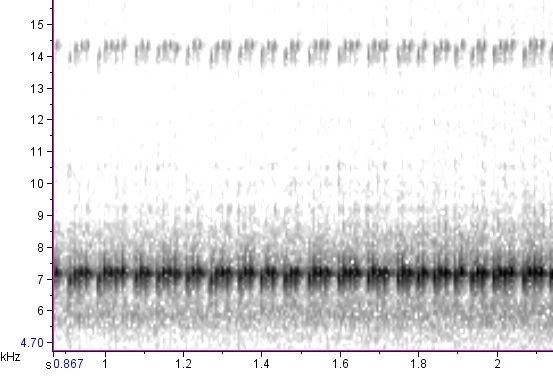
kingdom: Animalia
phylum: Arthropoda
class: Insecta
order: Orthoptera
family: Trigonidiidae
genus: Phyllopalpus
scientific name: Phyllopalpus pulchellus
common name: Handsome trig
